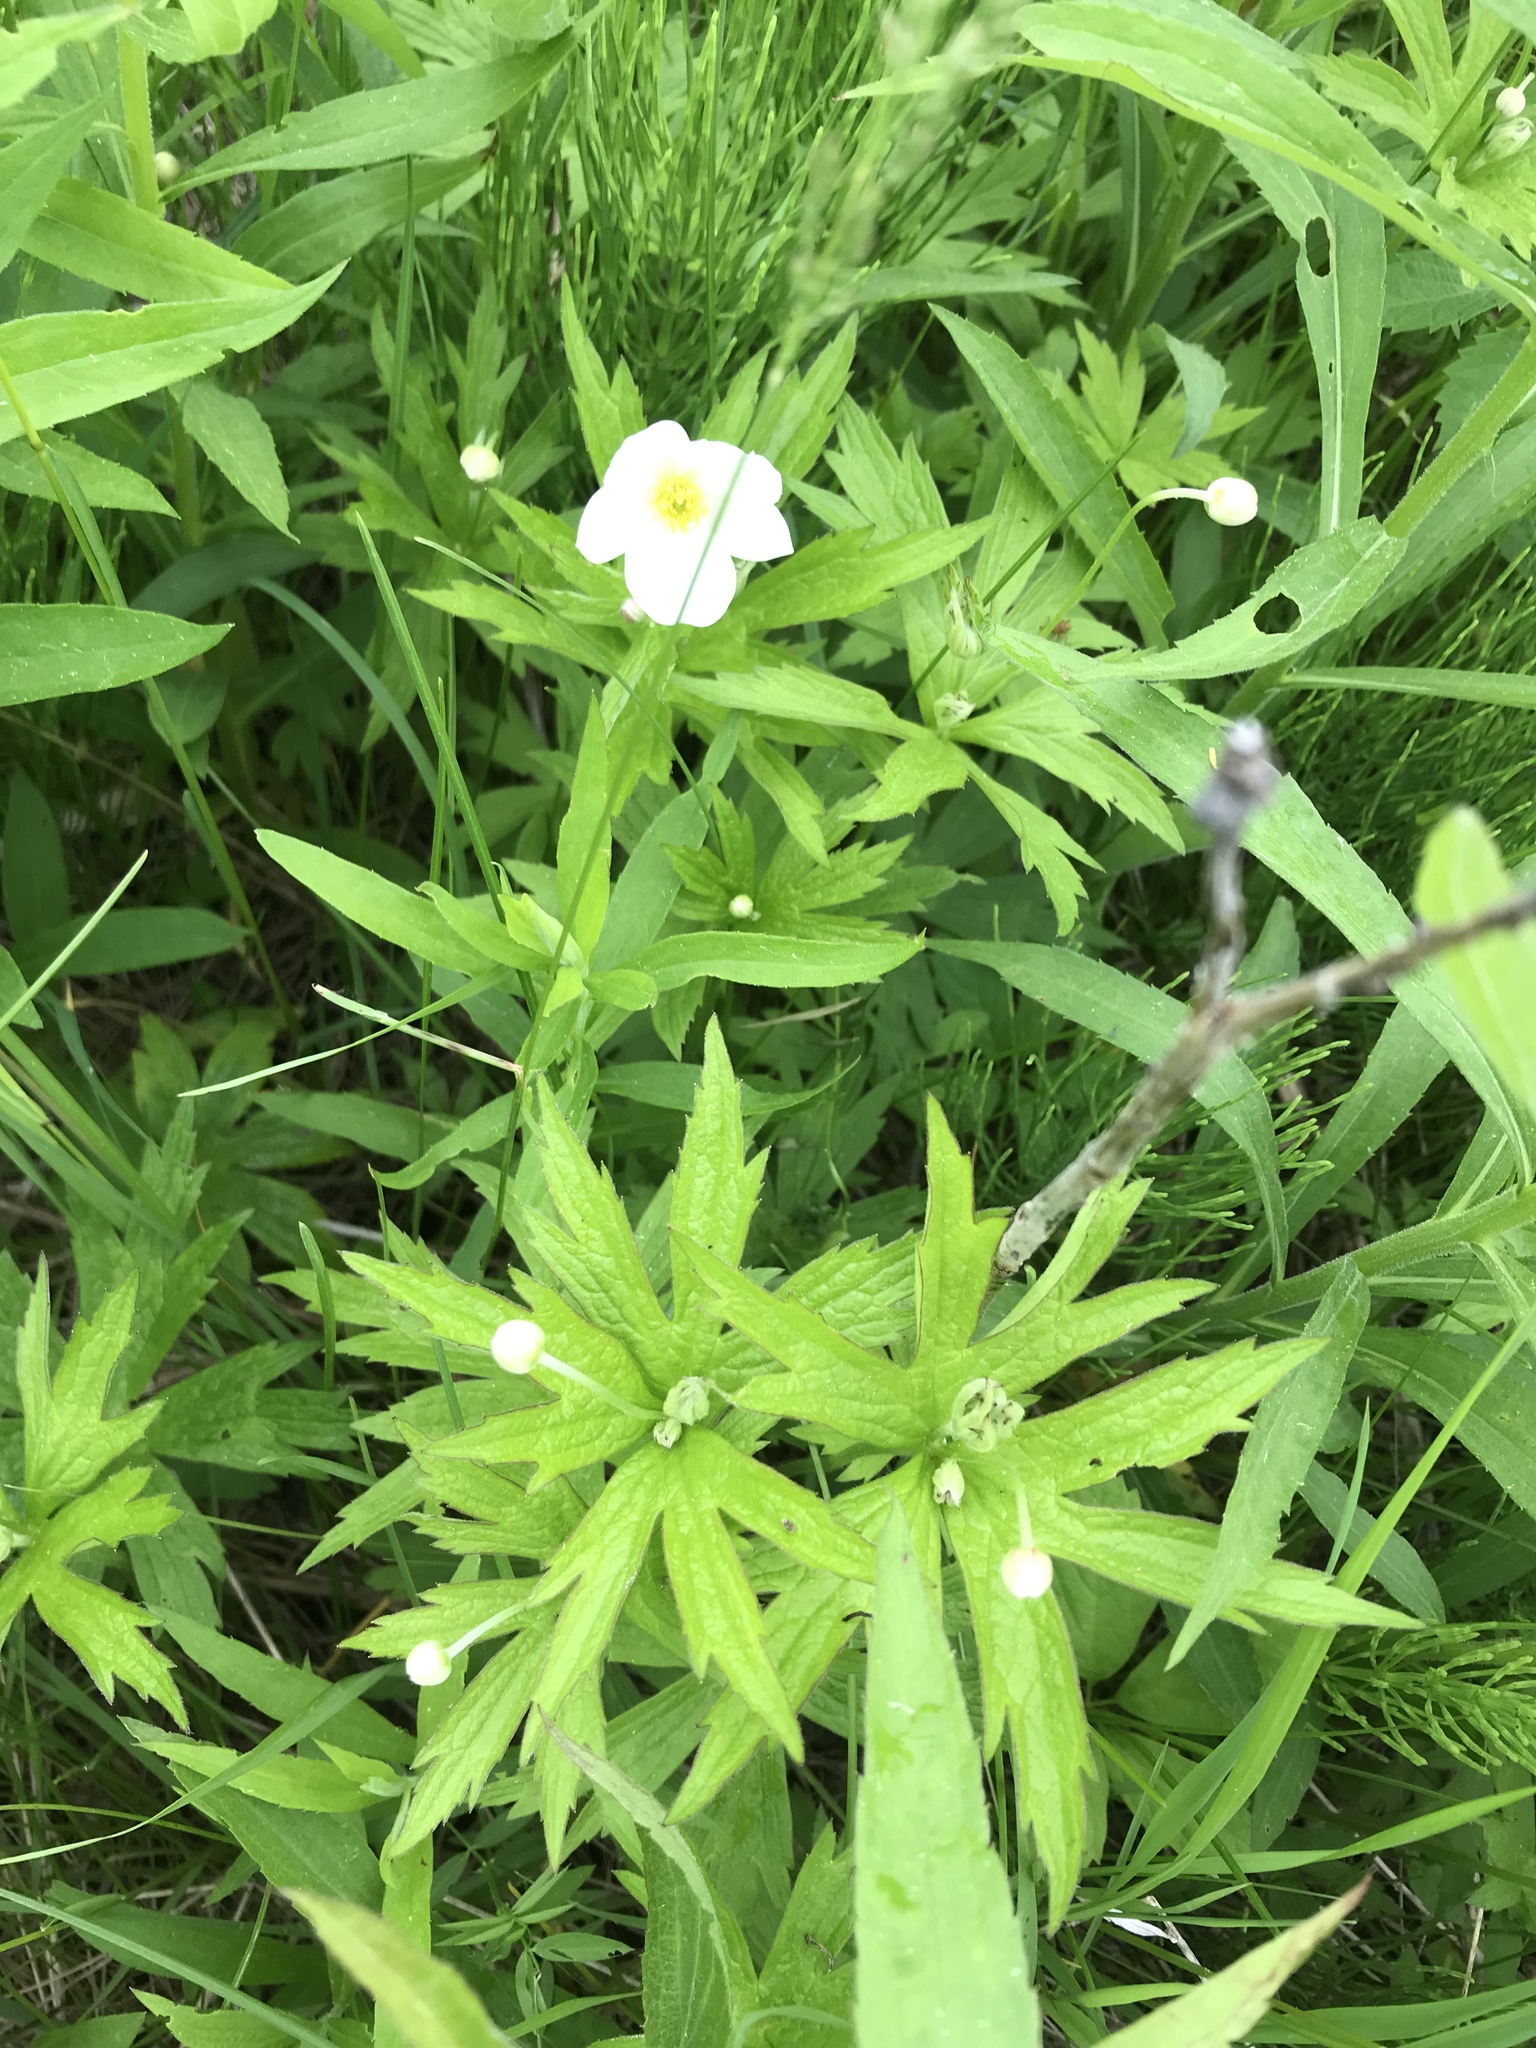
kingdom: Plantae
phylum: Tracheophyta
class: Magnoliopsida
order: Ranunculales
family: Ranunculaceae
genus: Anemonastrum
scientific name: Anemonastrum canadense
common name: Canada anemone
